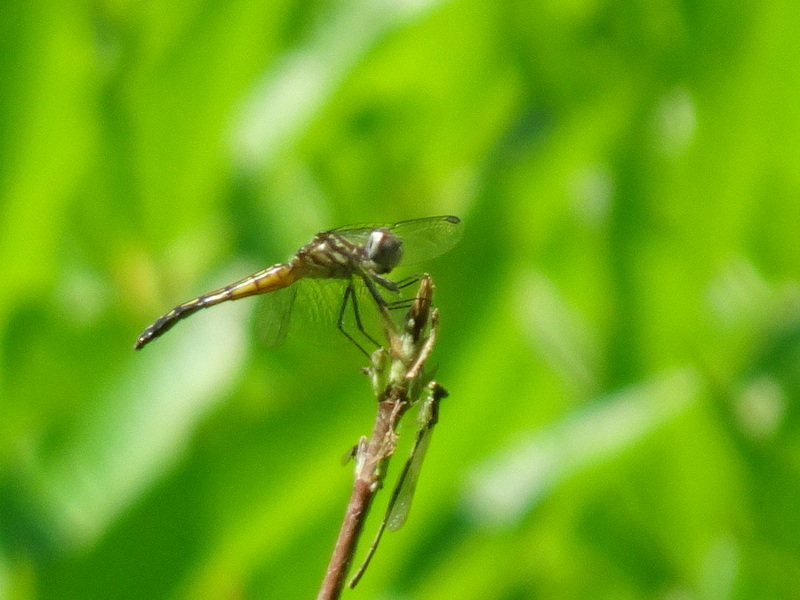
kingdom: Animalia
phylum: Arthropoda
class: Insecta
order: Odonata
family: Libellulidae
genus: Pachydiplax
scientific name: Pachydiplax longipennis
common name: Blue dasher
